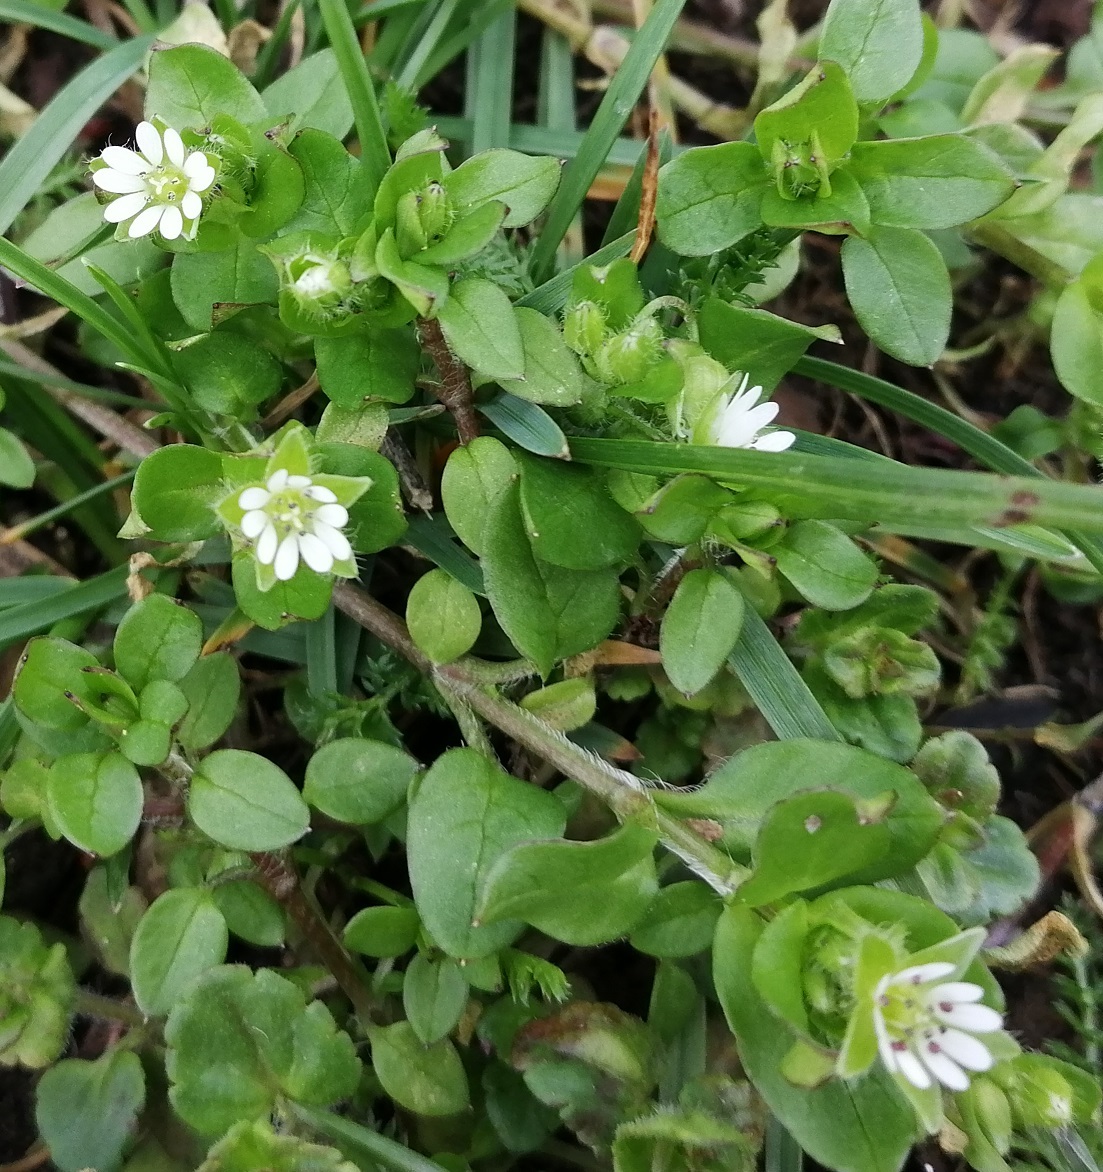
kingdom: Plantae
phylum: Tracheophyta
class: Magnoliopsida
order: Caryophyllales
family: Caryophyllaceae
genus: Stellaria
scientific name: Stellaria media
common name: Common chickweed
